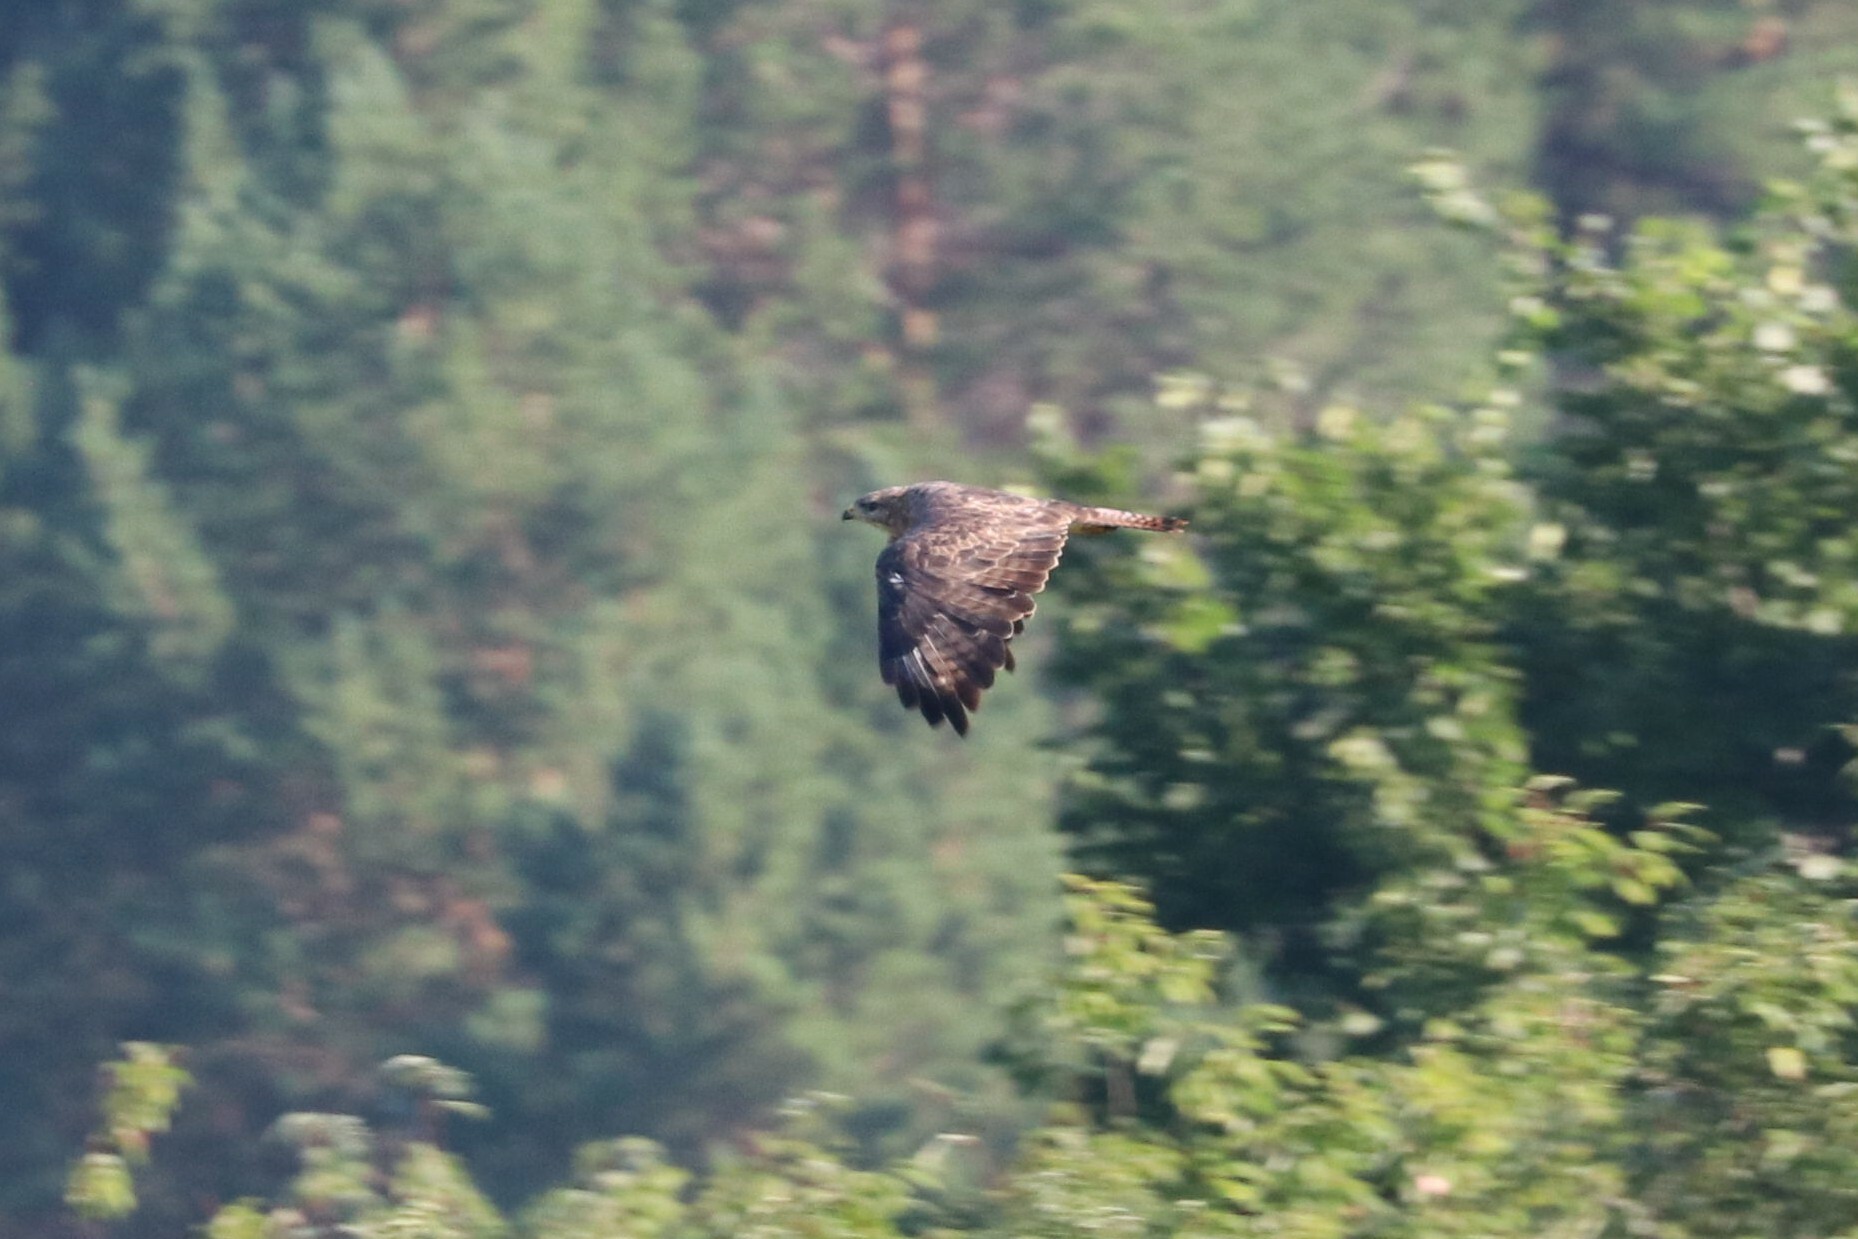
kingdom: Animalia
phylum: Chordata
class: Aves
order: Accipitriformes
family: Accipitridae
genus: Buteo
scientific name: Buteo buteo
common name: Common buzzard
